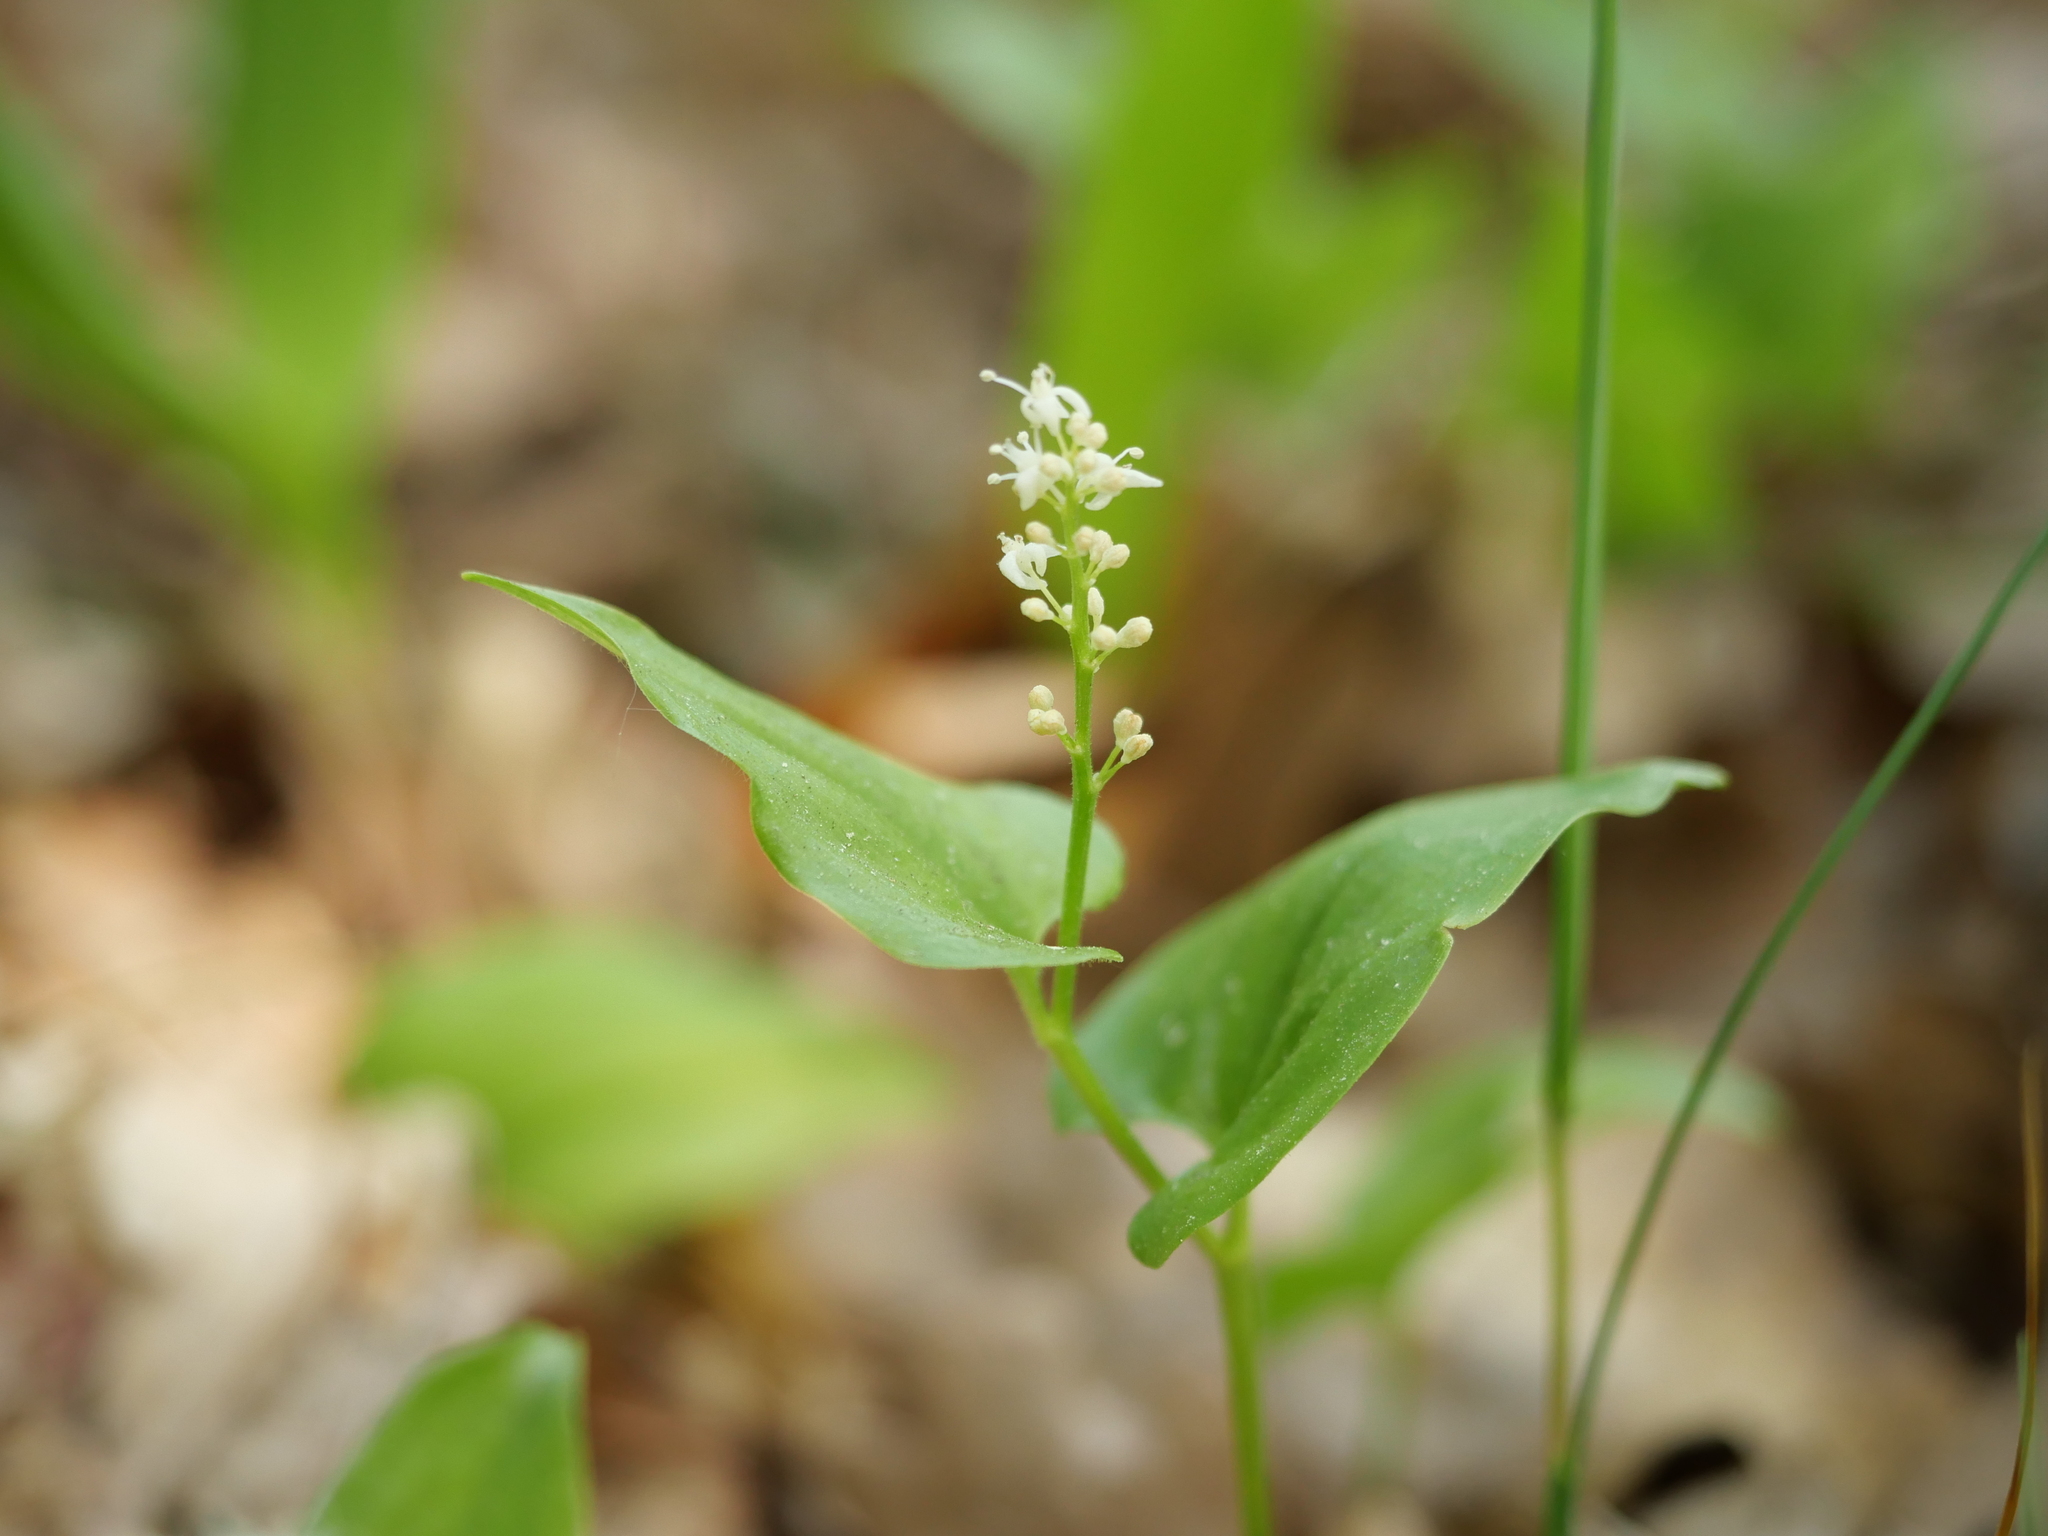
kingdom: Plantae
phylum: Tracheophyta
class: Liliopsida
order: Asparagales
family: Asparagaceae
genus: Maianthemum
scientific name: Maianthemum bifolium
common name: May lily
